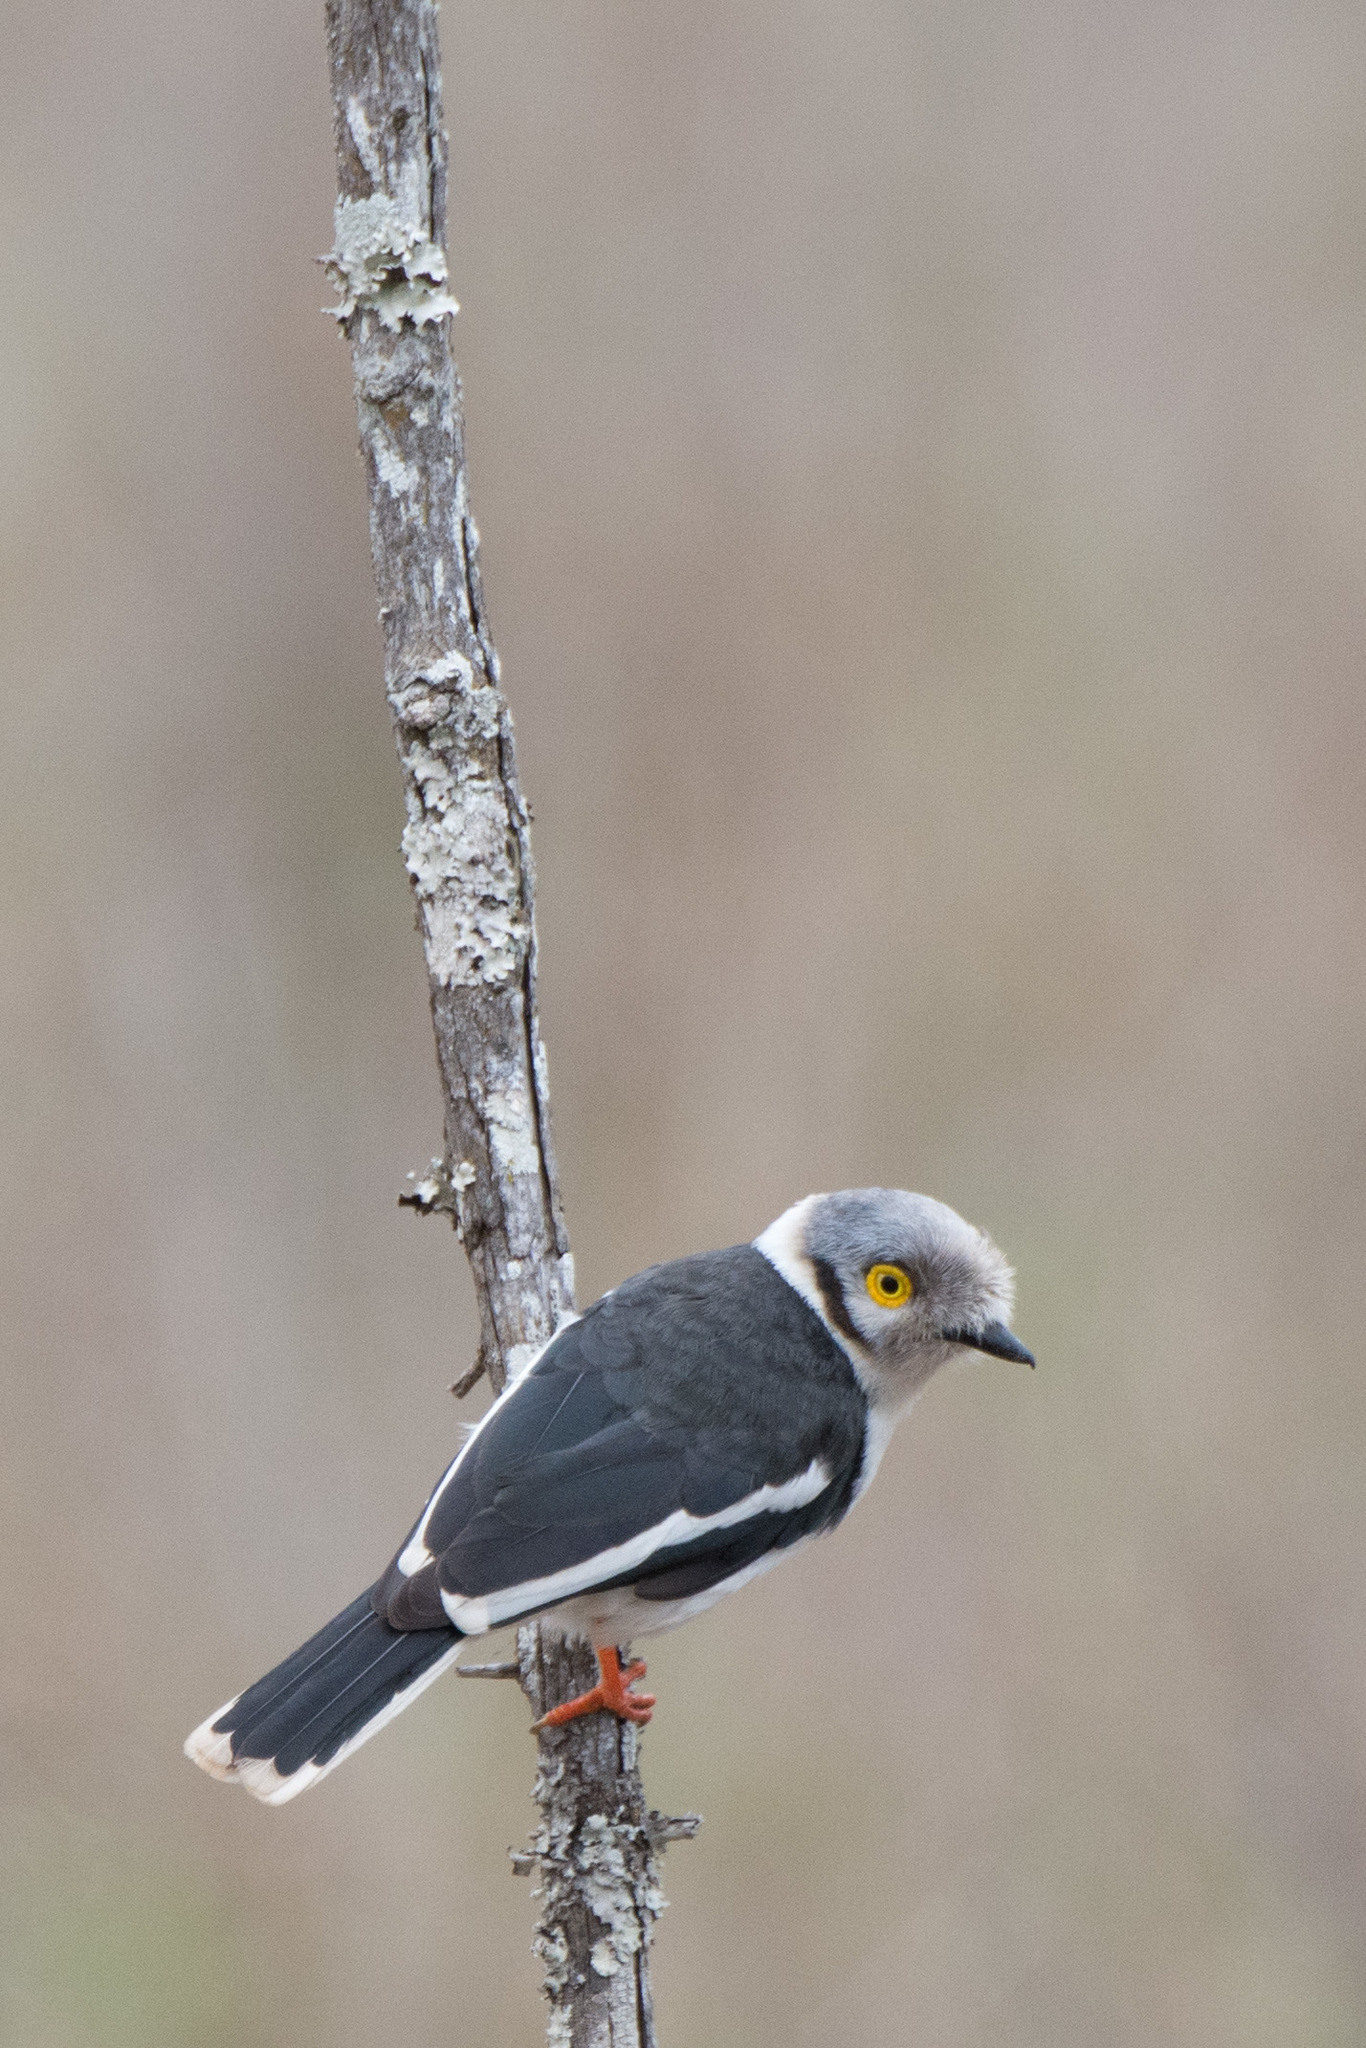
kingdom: Animalia
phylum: Chordata
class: Aves
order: Passeriformes
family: Prionopidae
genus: Prionops
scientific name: Prionops plumatus
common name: White-crested helmetshrike
